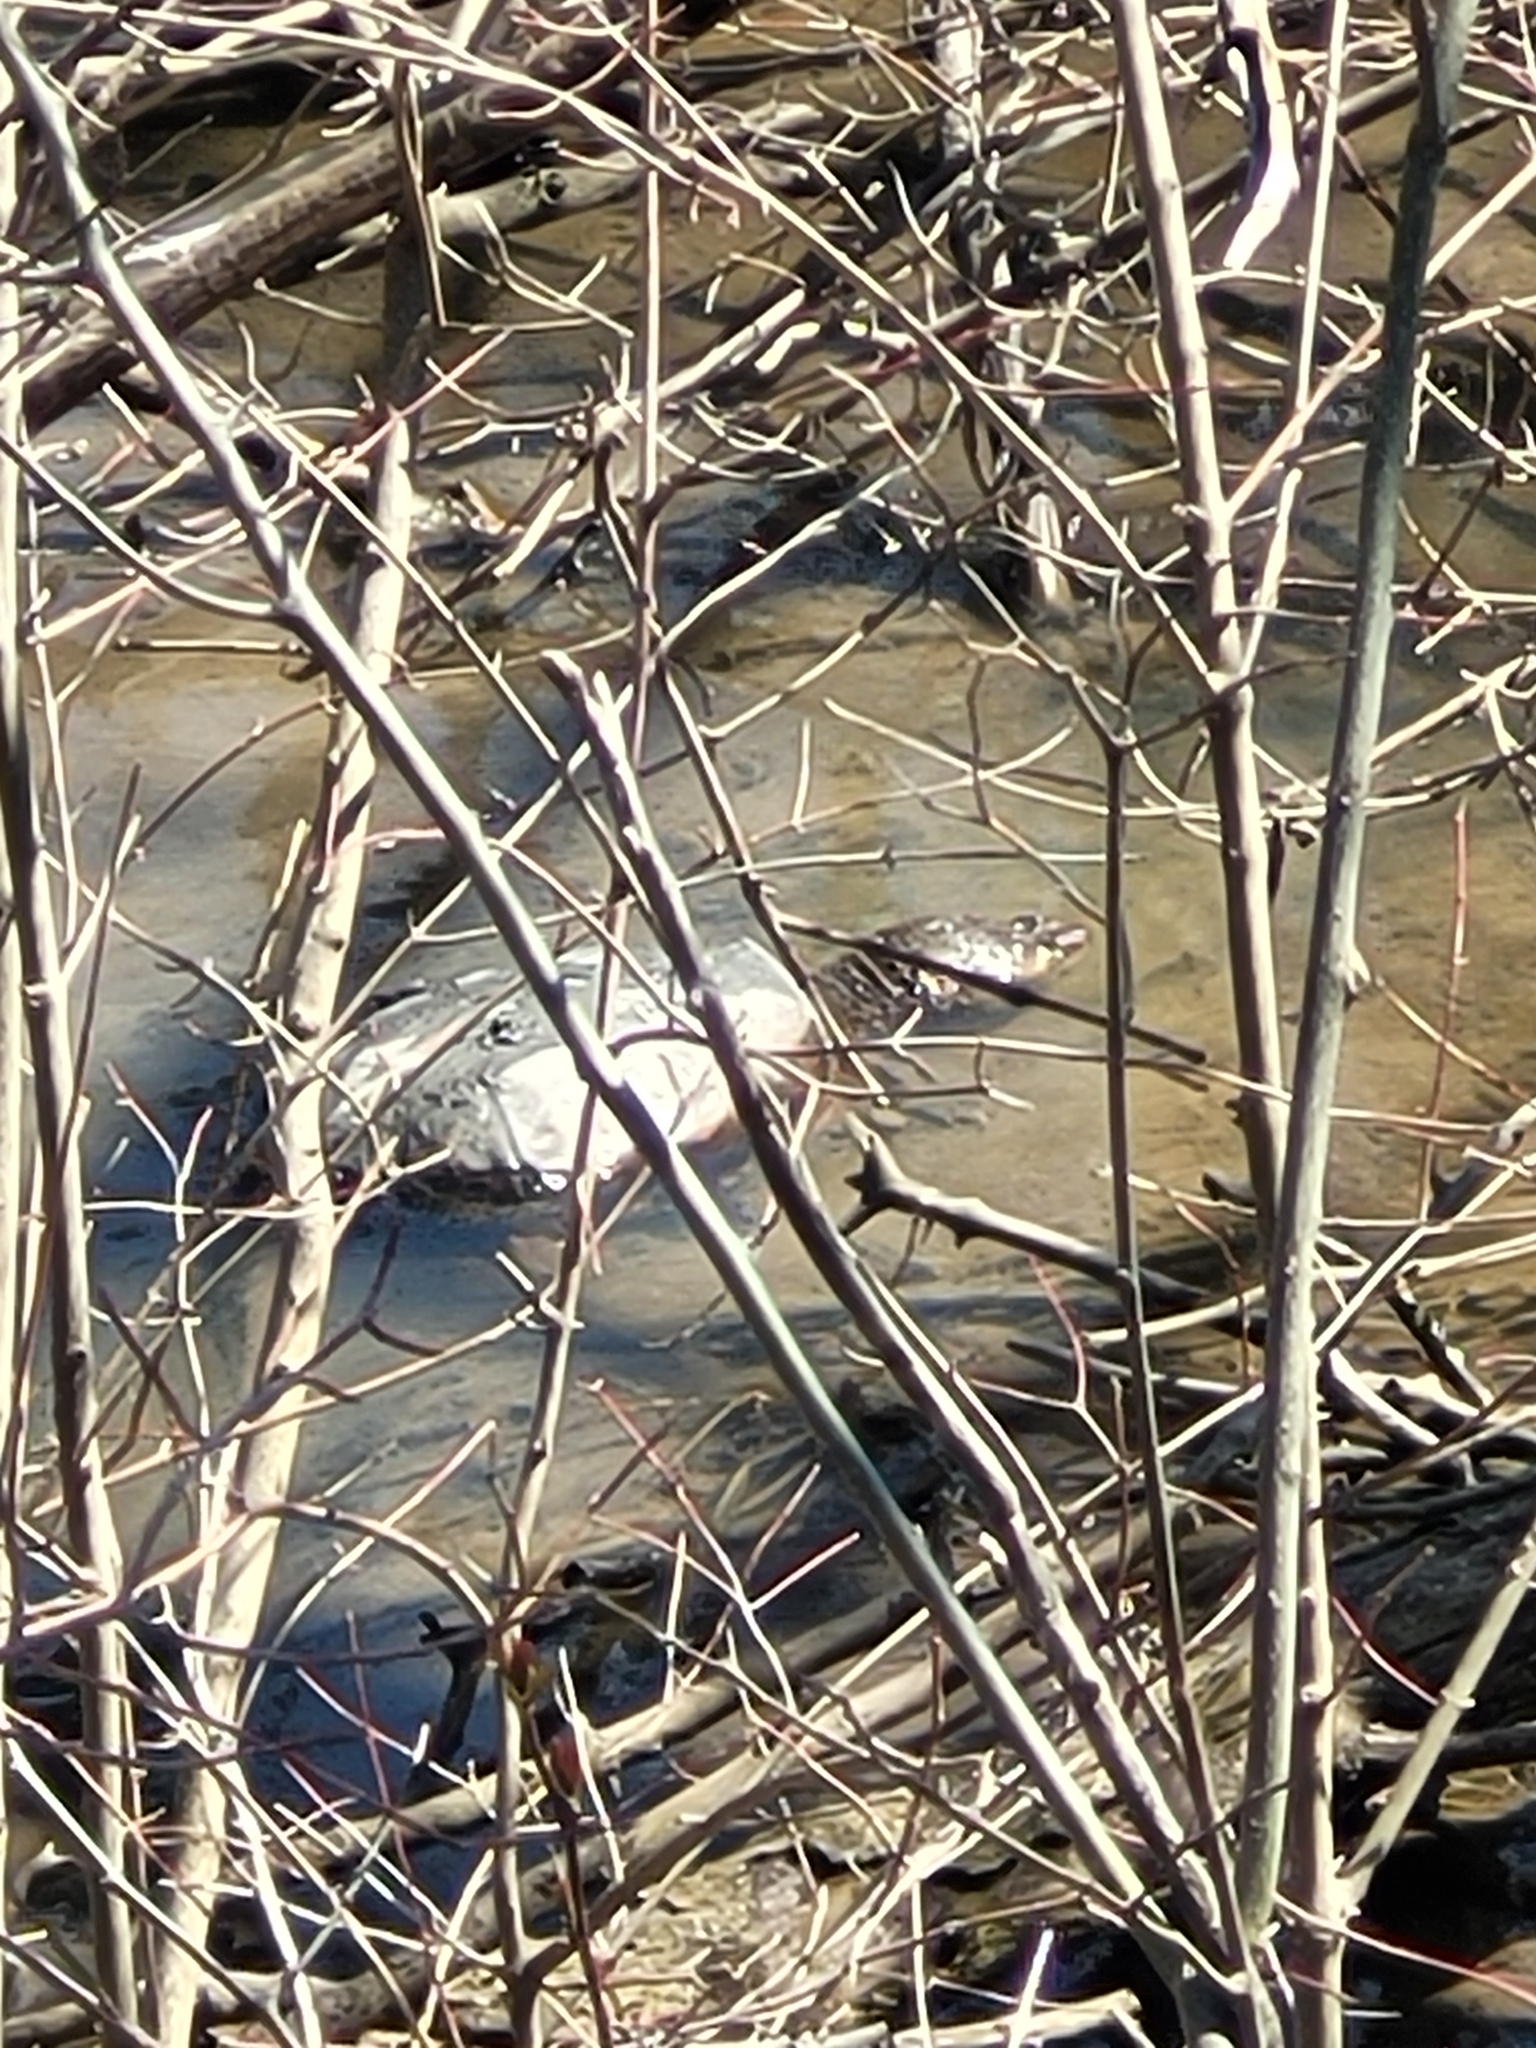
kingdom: Animalia
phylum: Chordata
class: Testudines
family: Chelydridae
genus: Chelydra
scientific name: Chelydra serpentina
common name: Common snapping turtle
